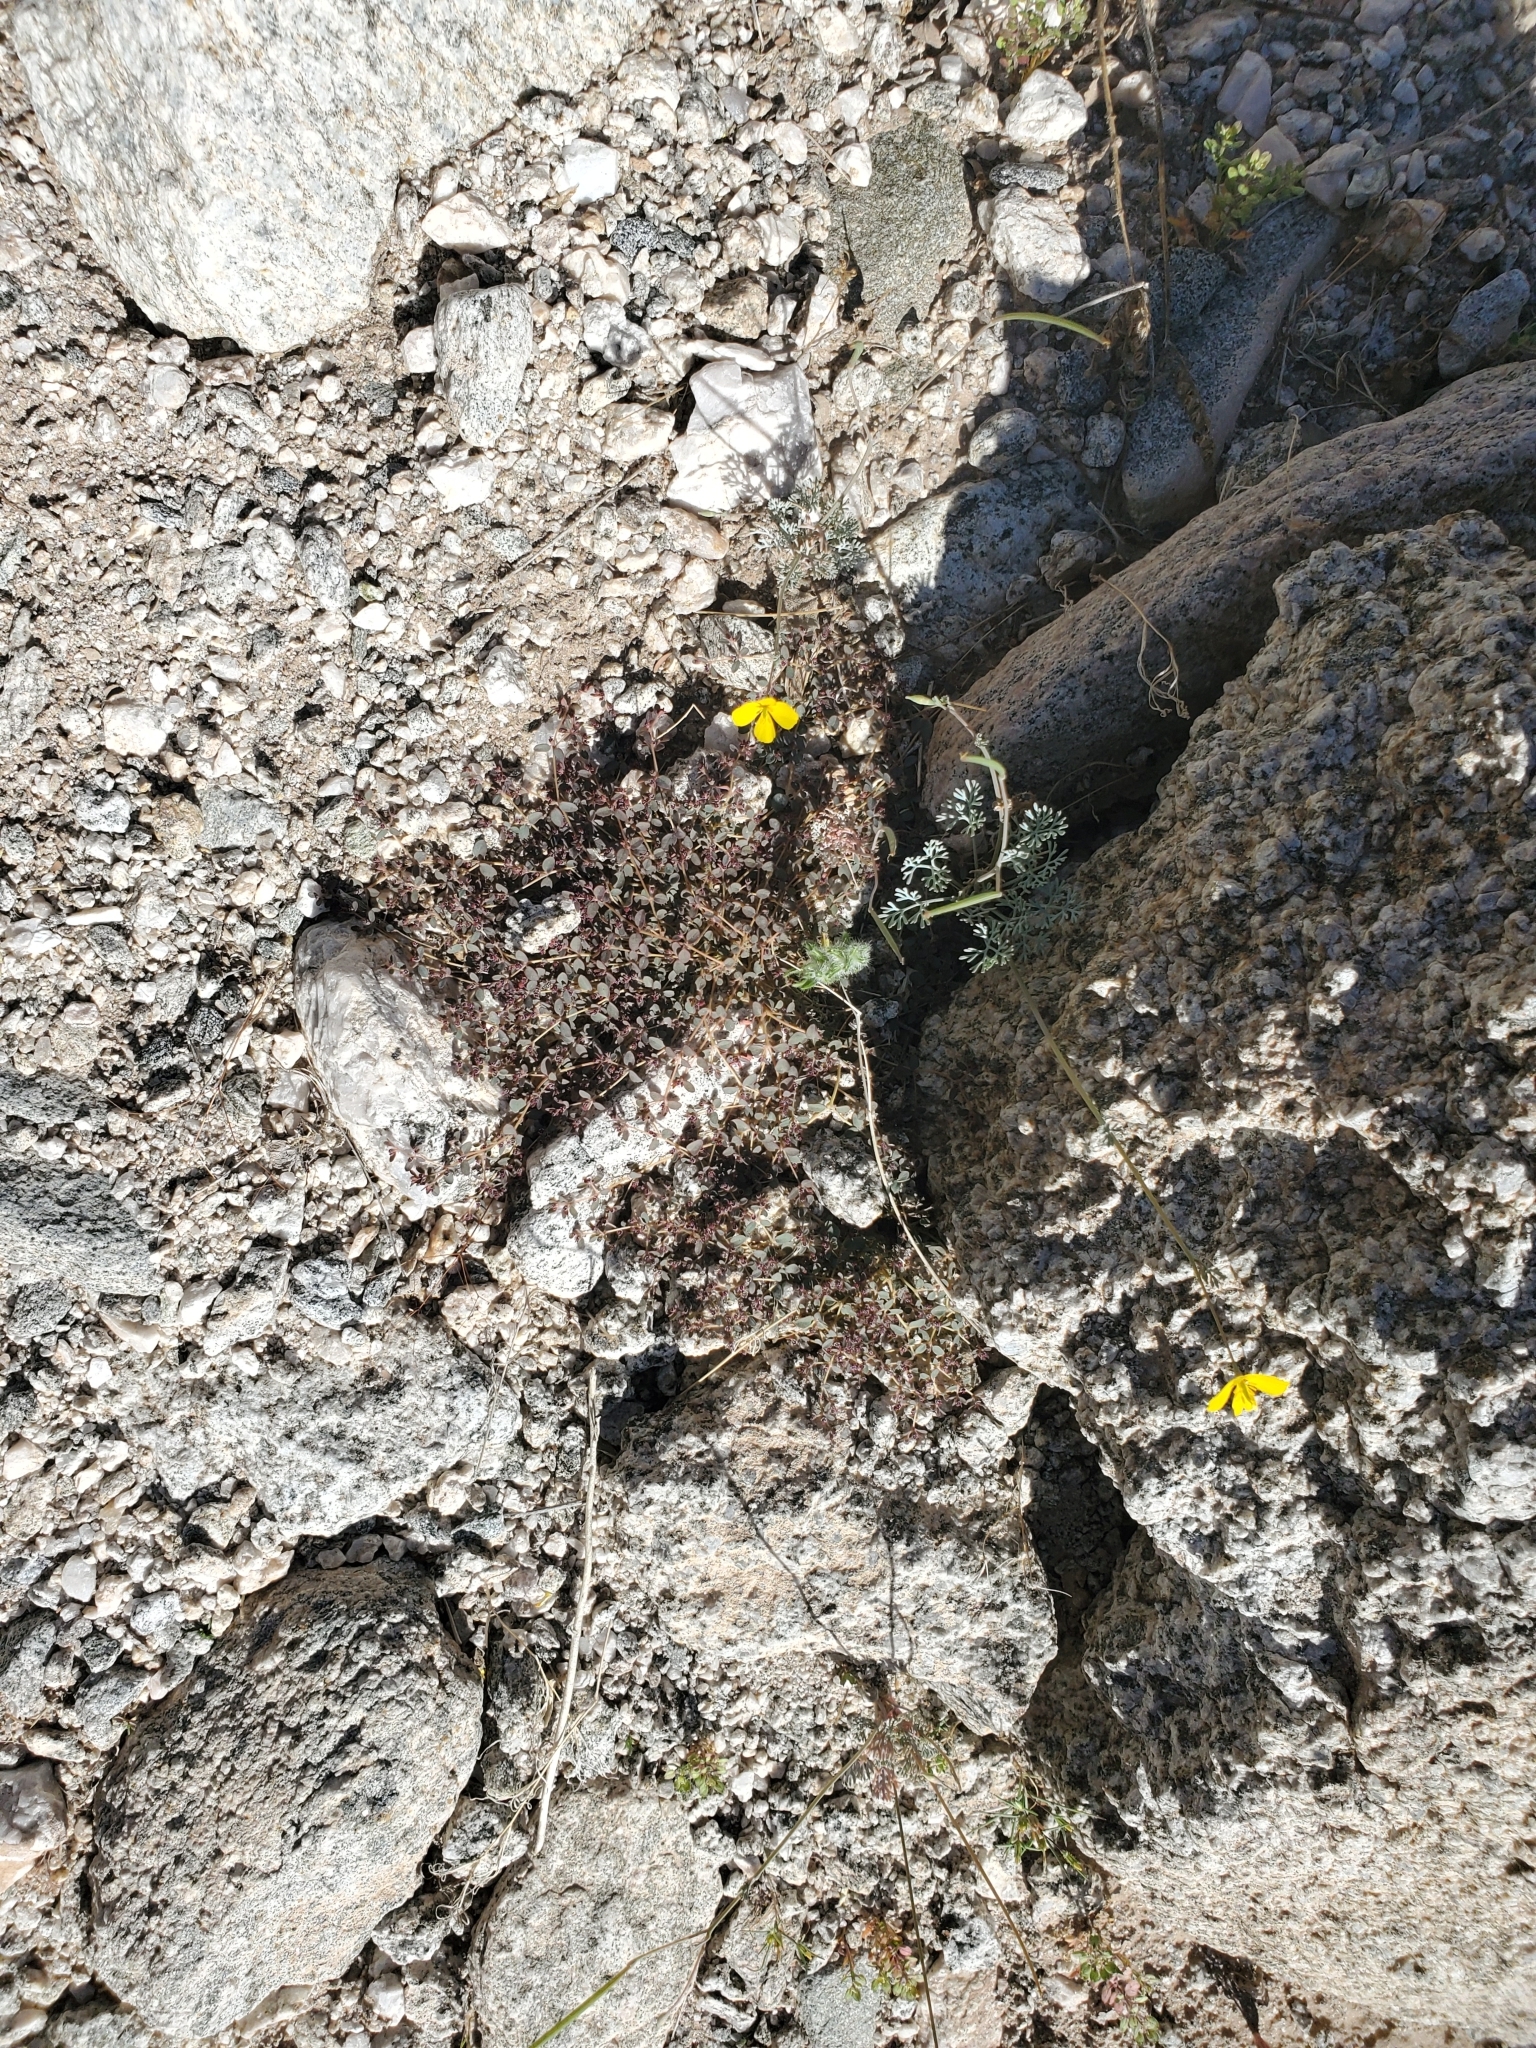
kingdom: Plantae
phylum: Tracheophyta
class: Magnoliopsida
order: Ranunculales
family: Papaveraceae
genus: Eschscholzia
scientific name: Eschscholzia minutiflora
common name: Small-flower california-poppy
